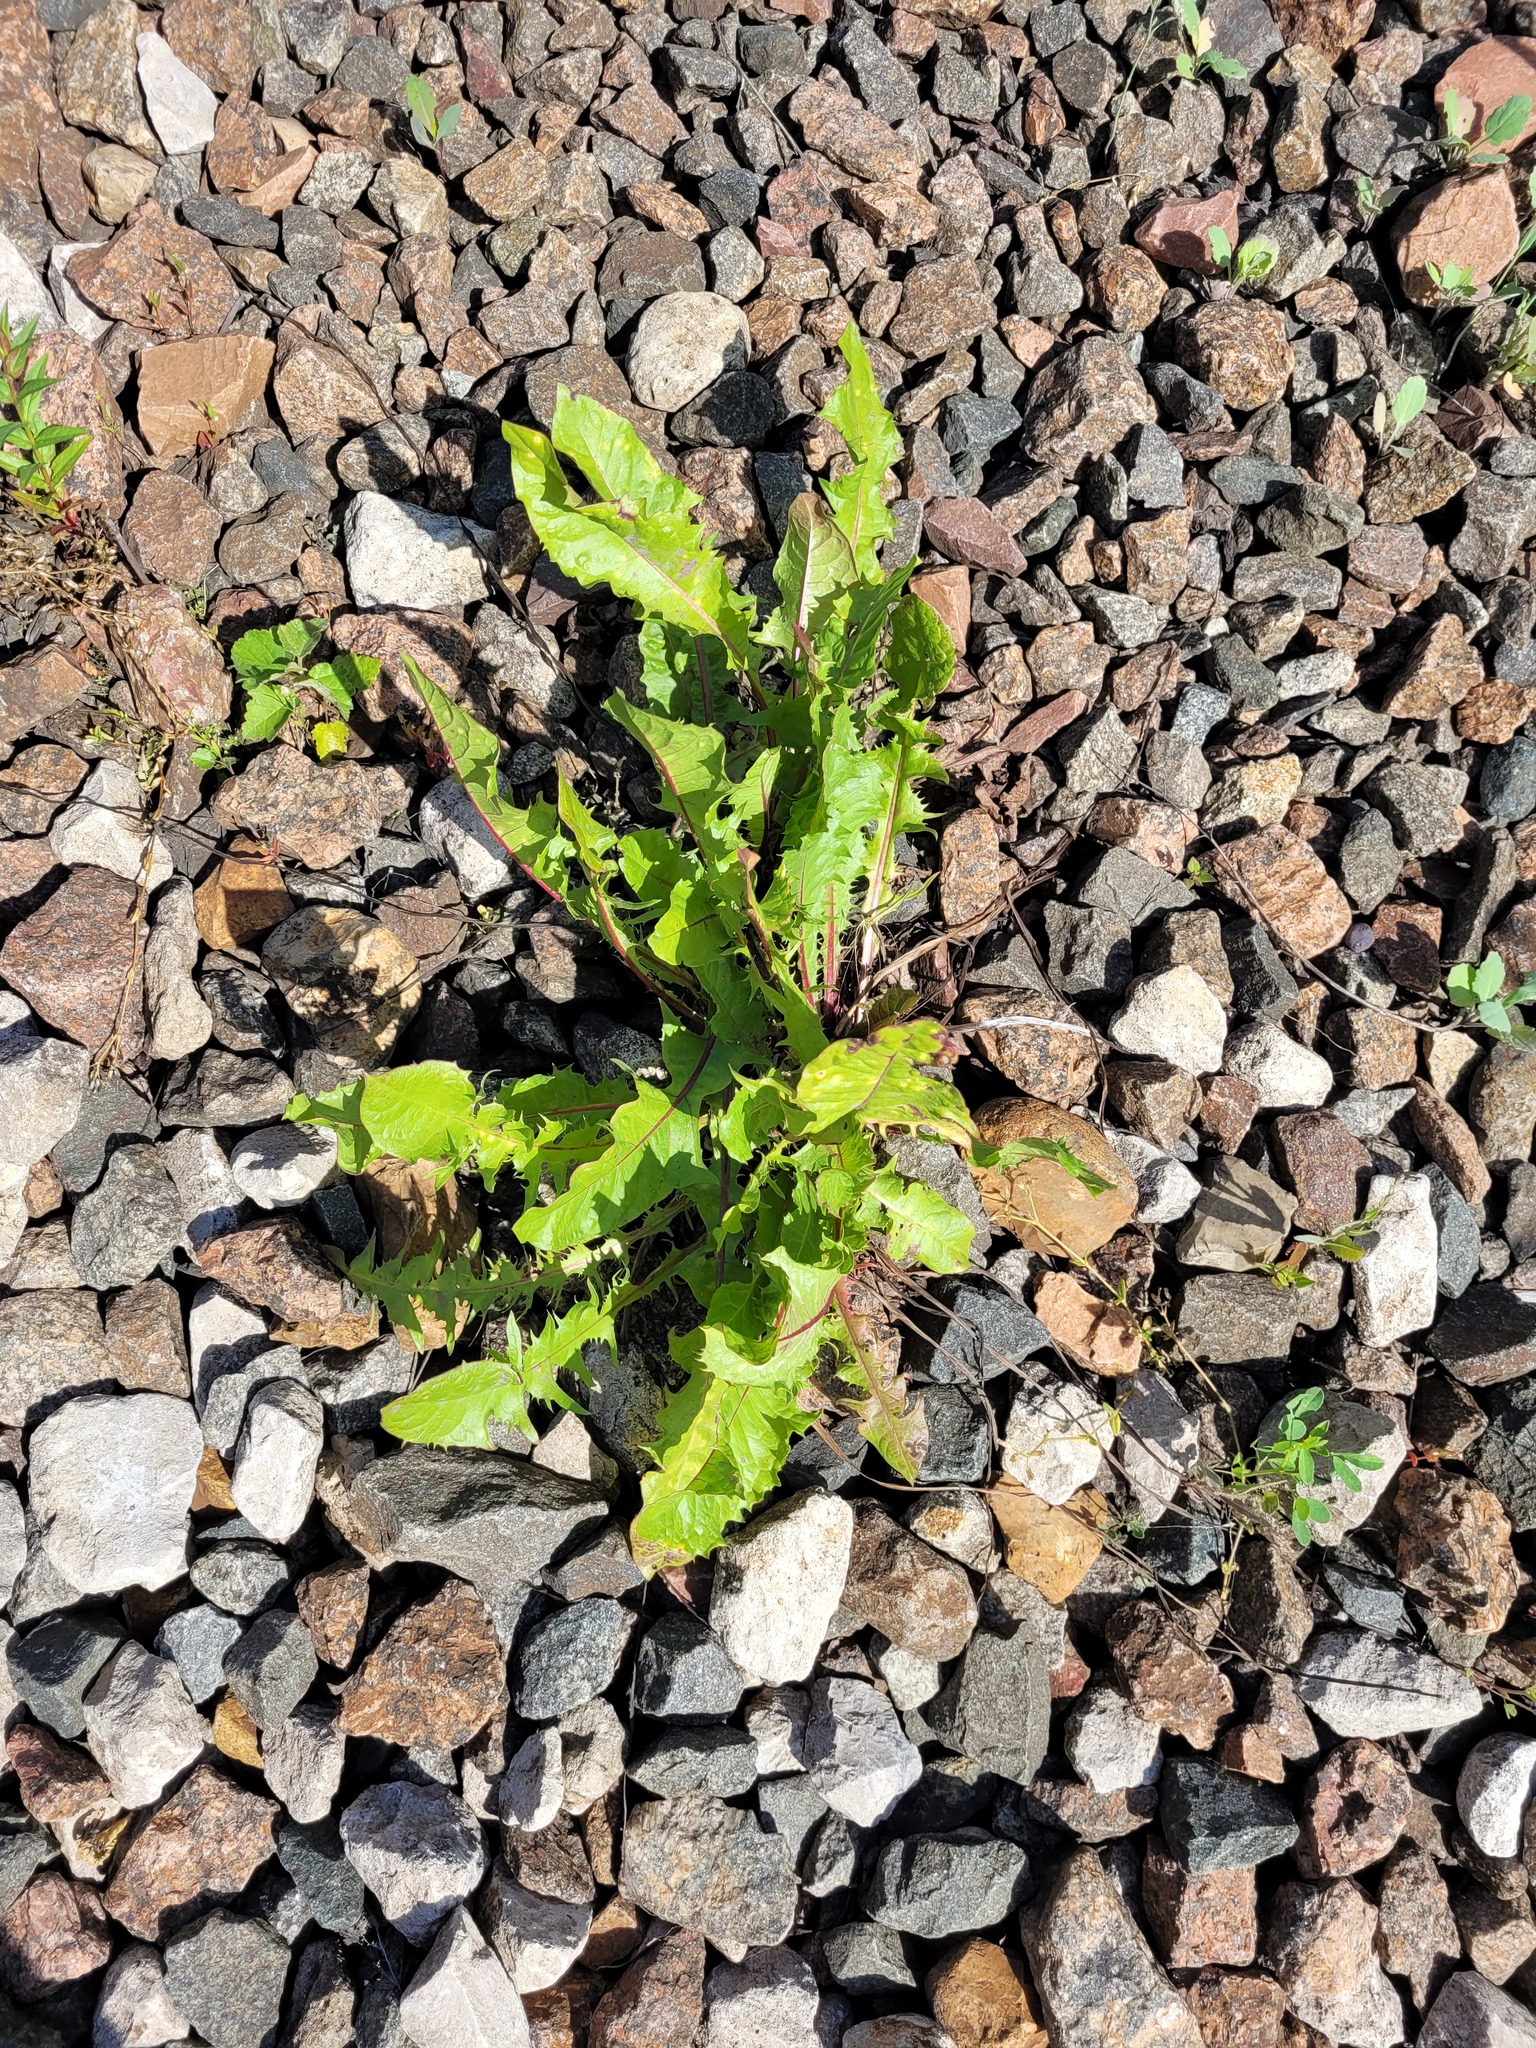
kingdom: Plantae
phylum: Tracheophyta
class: Magnoliopsida
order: Asterales
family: Asteraceae
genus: Taraxacum
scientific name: Taraxacum officinale
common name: Common dandelion
